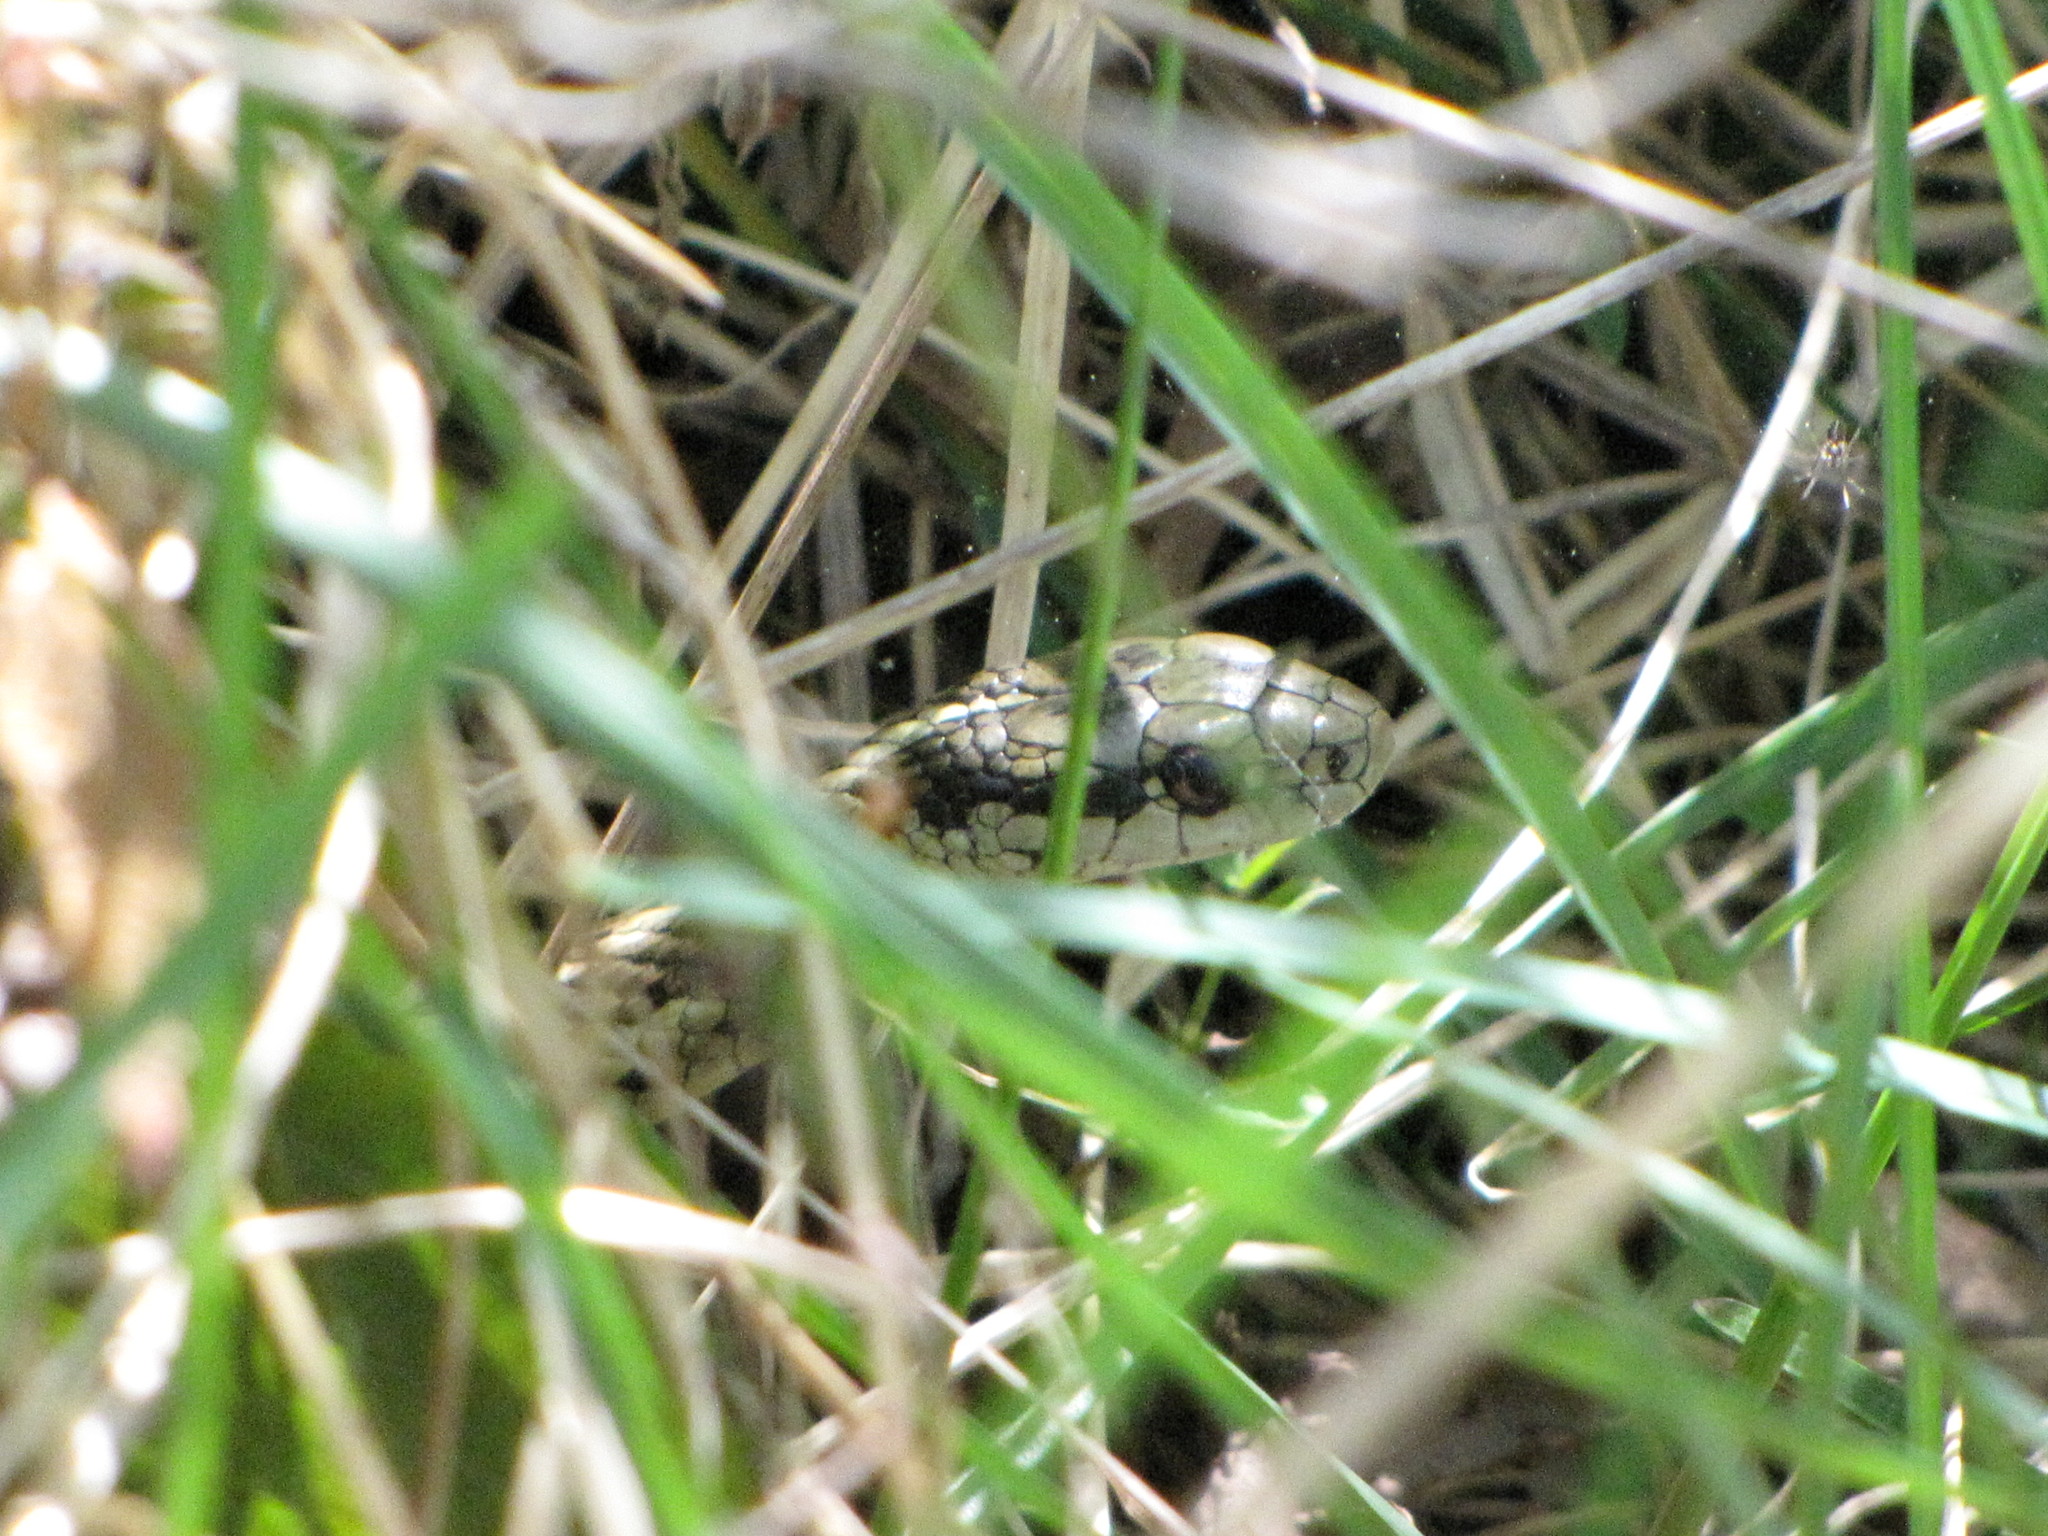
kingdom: Animalia
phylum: Chordata
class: Squamata
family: Colubridae
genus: Thamnophis
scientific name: Thamnophis ordinoides
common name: Northwestern garter snake
